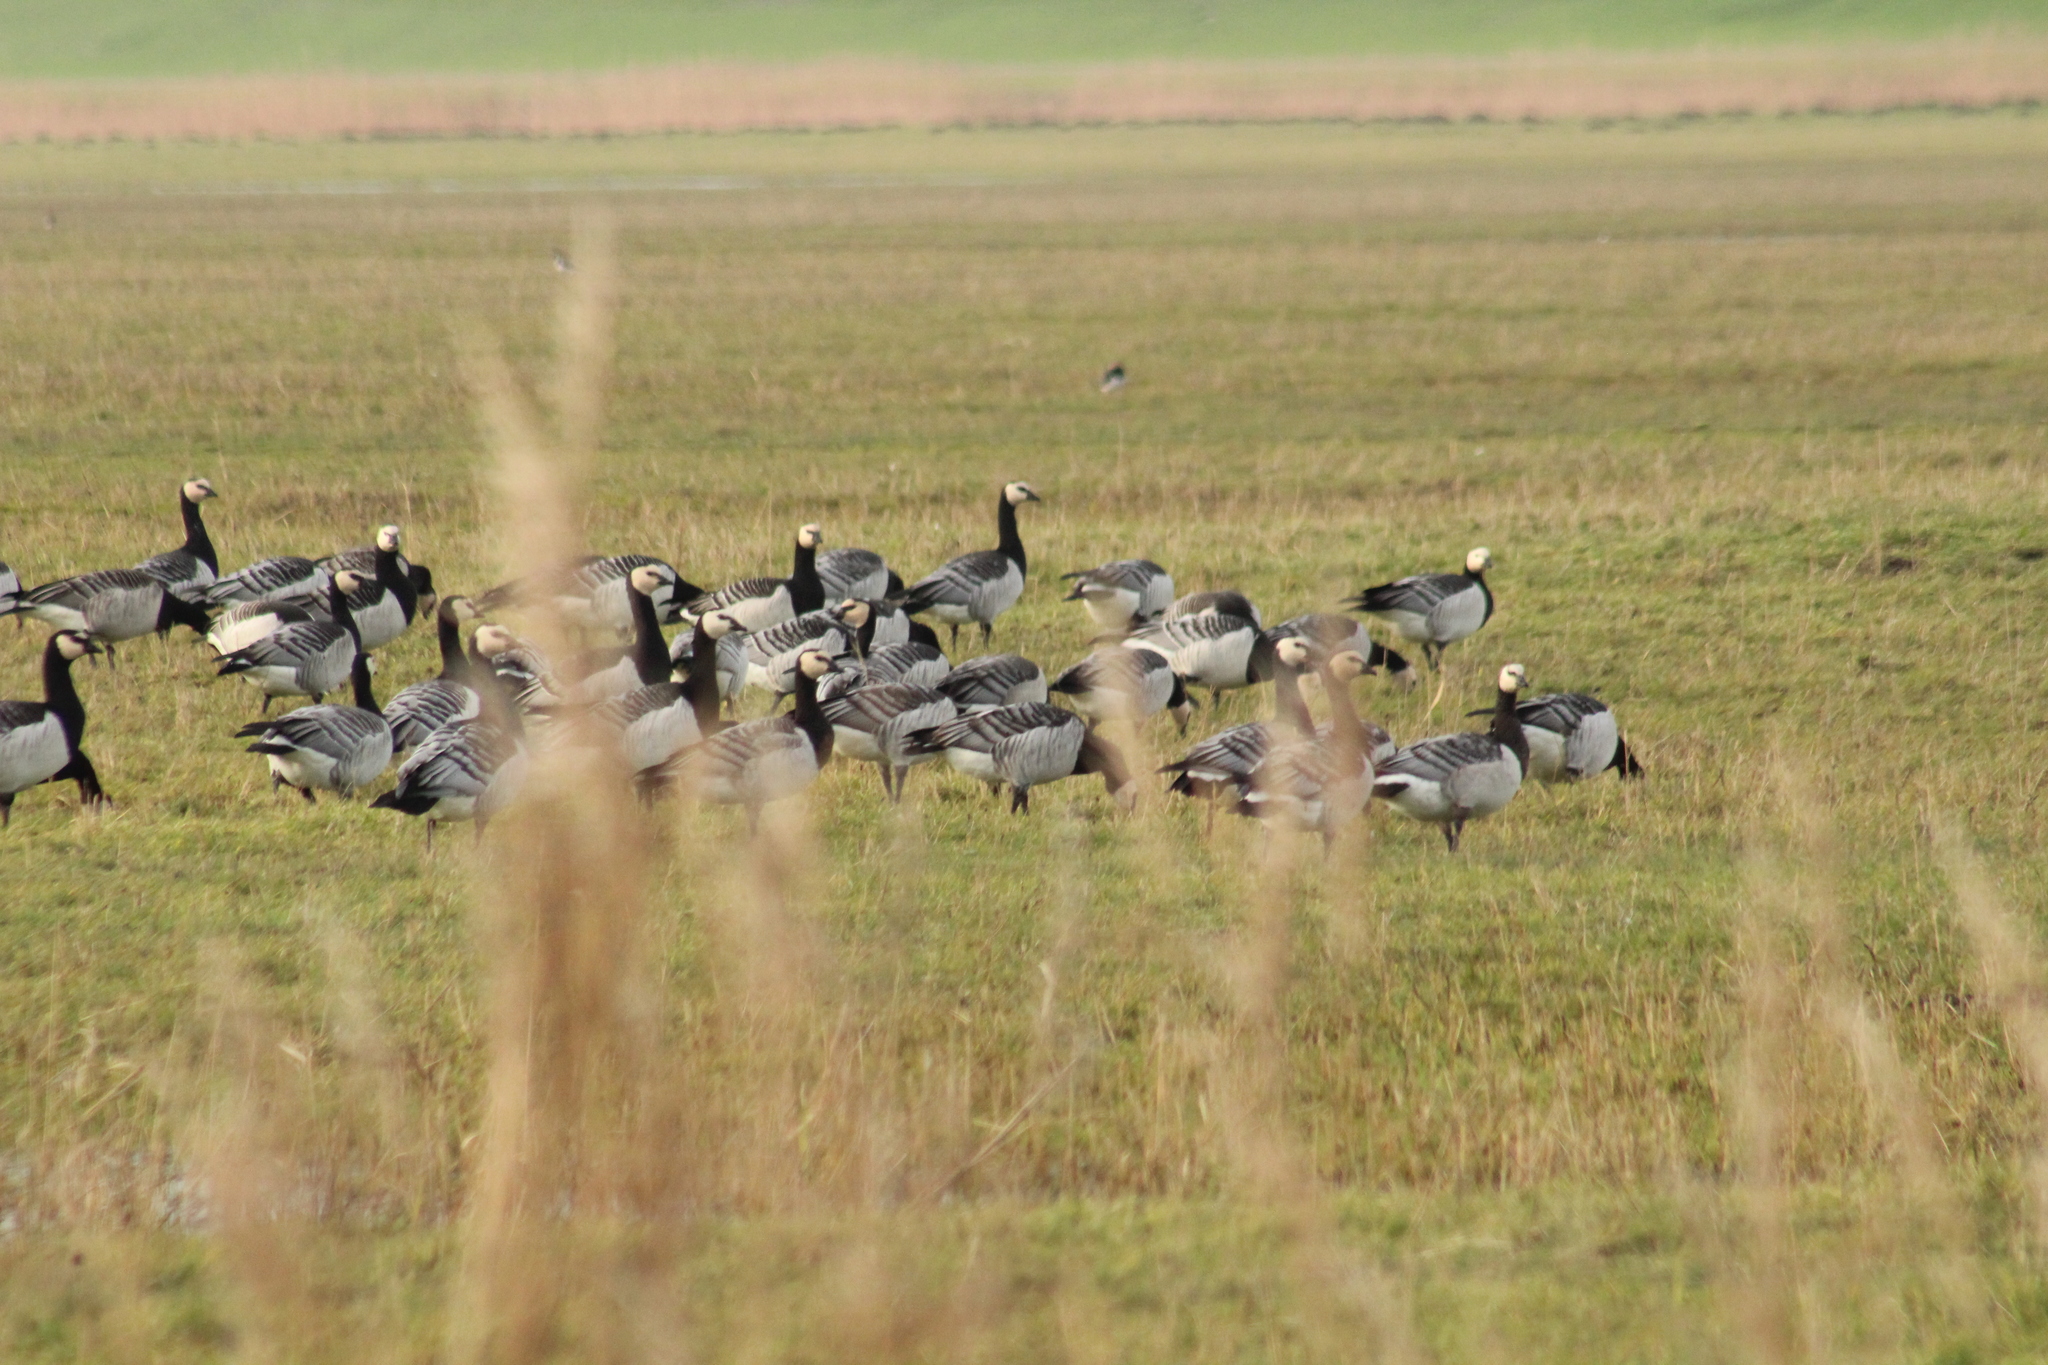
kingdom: Animalia
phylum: Chordata
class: Aves
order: Anseriformes
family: Anatidae
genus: Branta
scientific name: Branta leucopsis
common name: Barnacle goose
